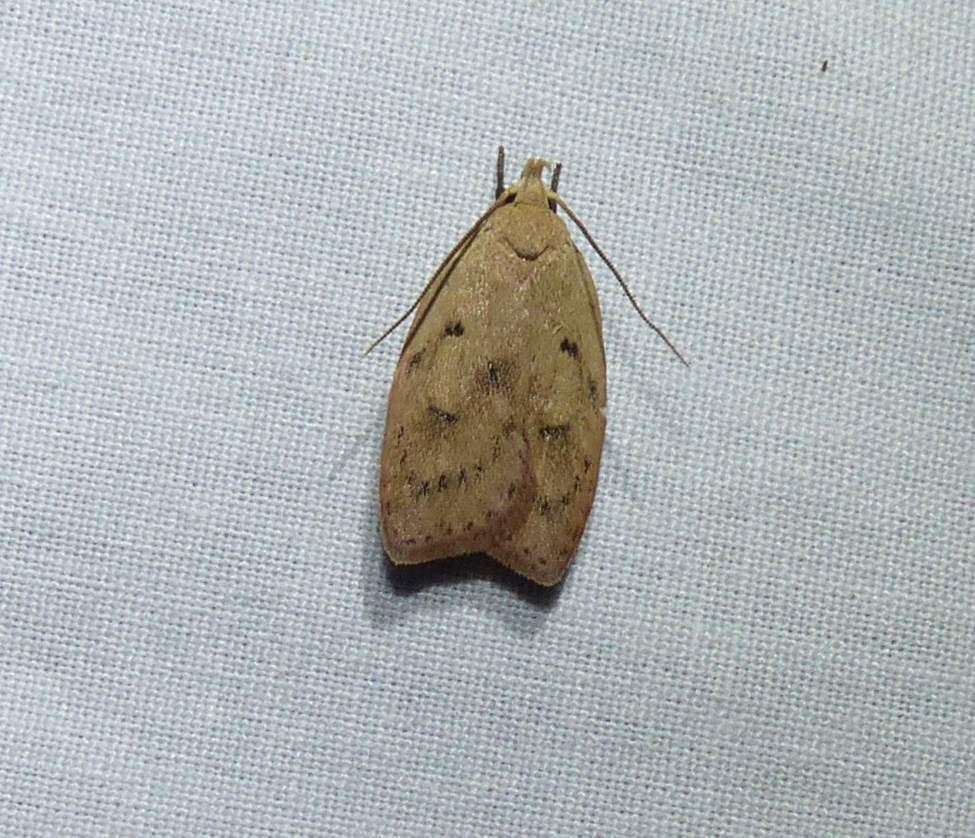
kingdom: Animalia
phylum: Arthropoda
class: Insecta
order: Lepidoptera
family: Peleopodidae
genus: Machimia
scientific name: Machimia tentoriferella
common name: Gold-striped leaftier moth
